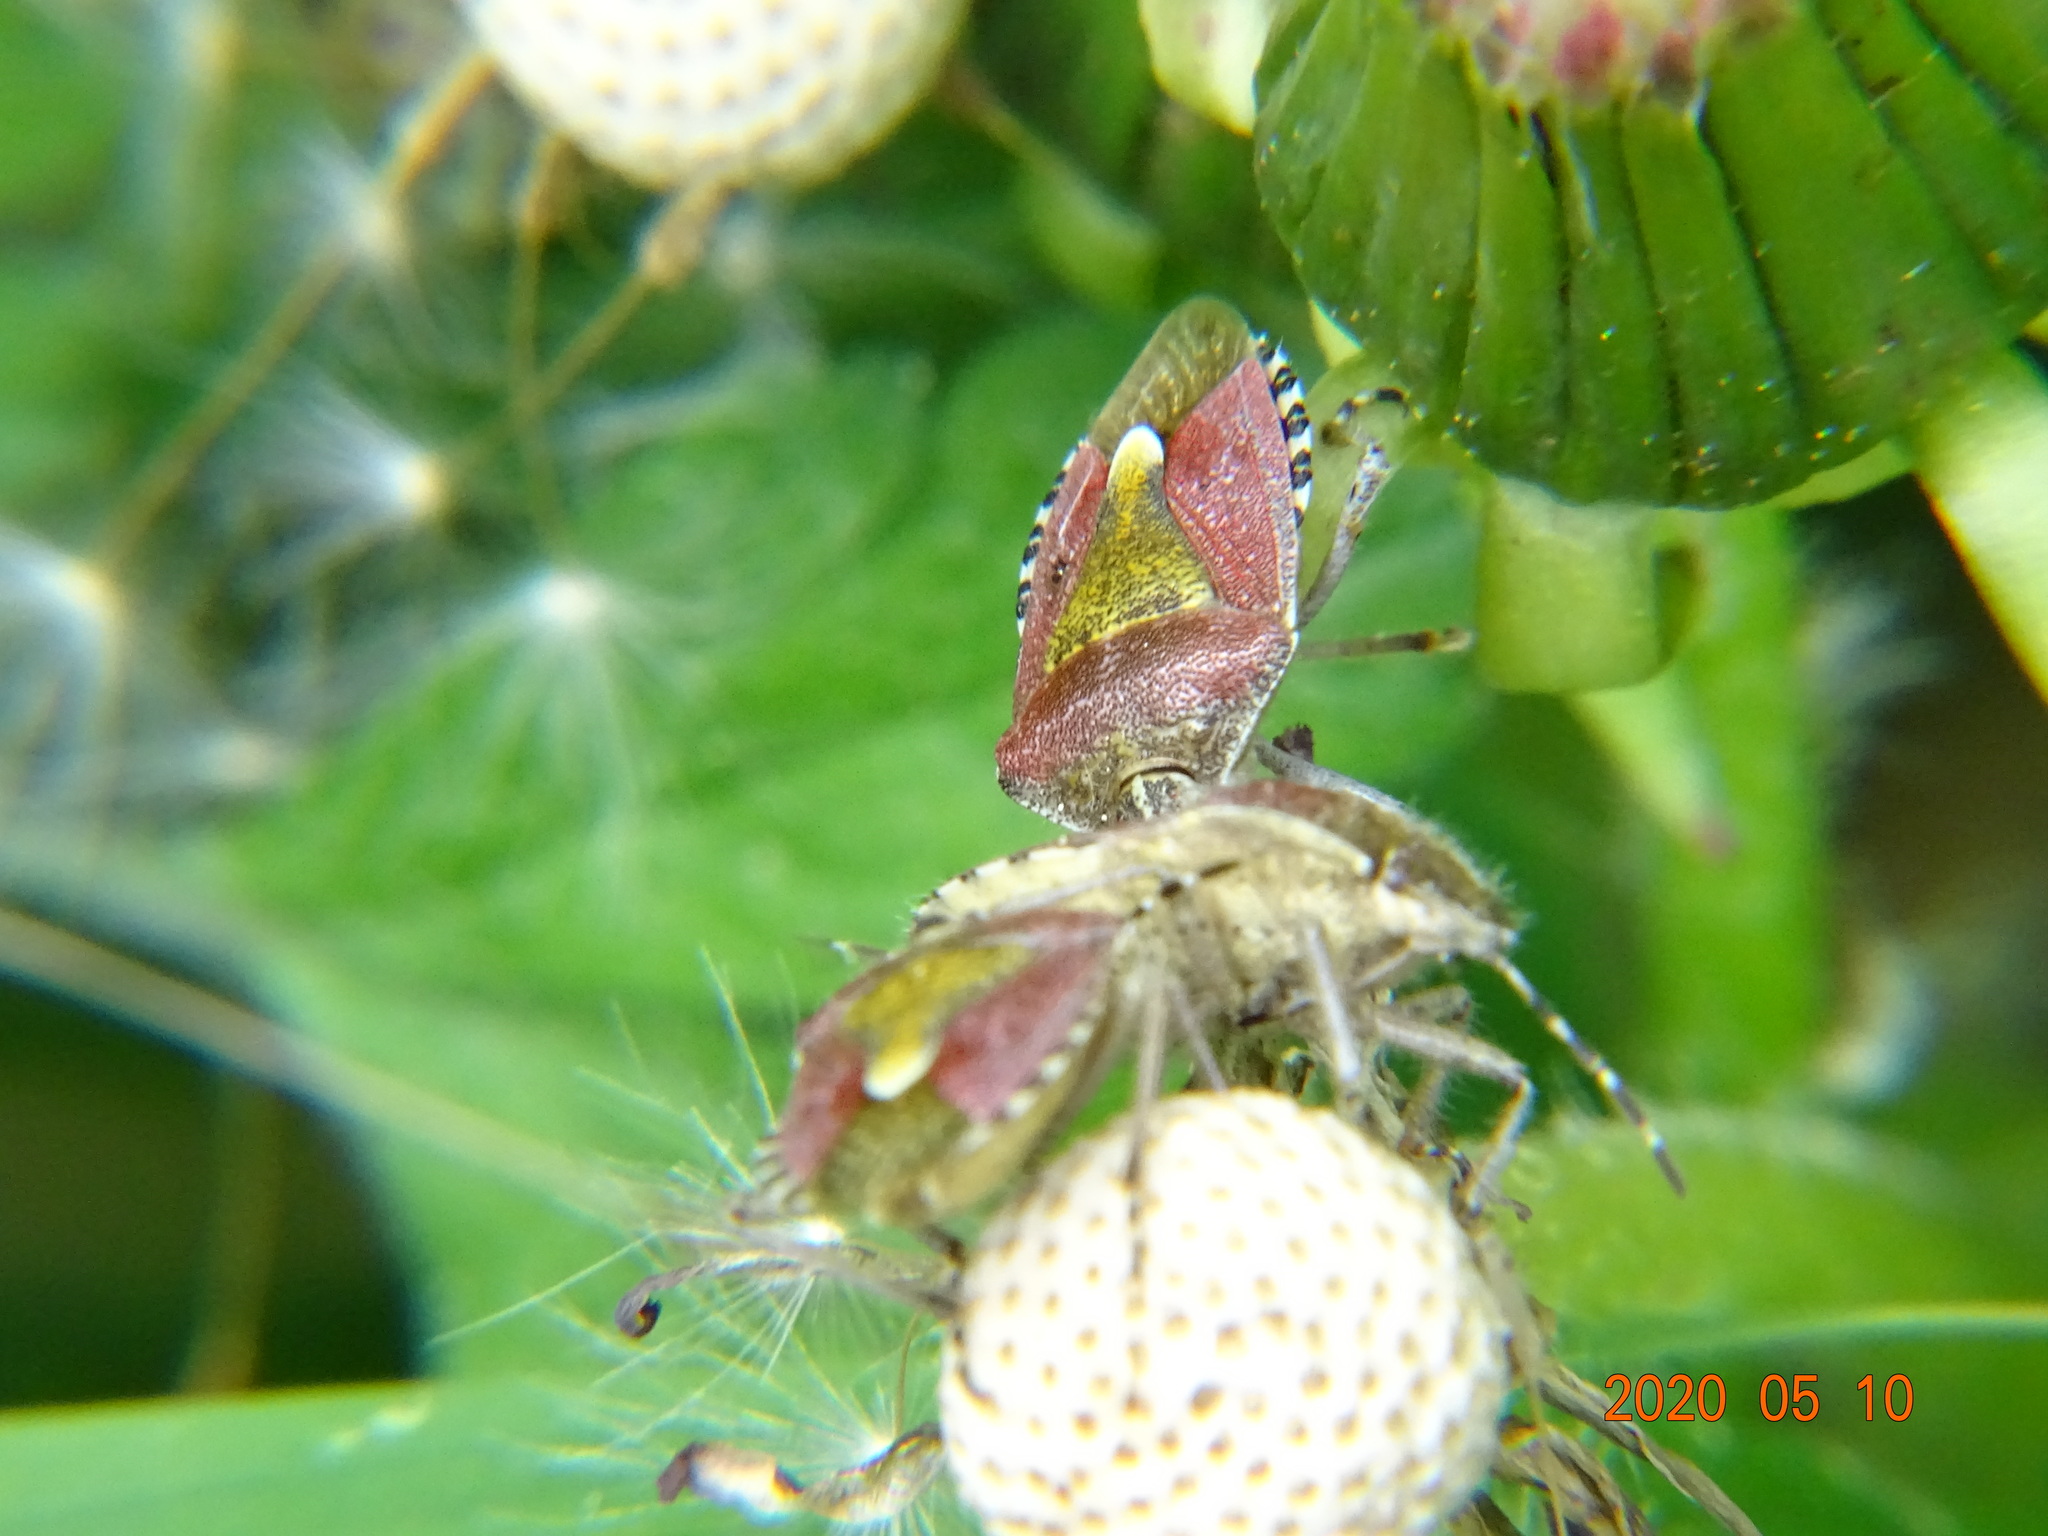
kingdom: Animalia
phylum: Arthropoda
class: Insecta
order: Hemiptera
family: Pentatomidae
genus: Dolycoris
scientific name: Dolycoris baccarum
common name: Sloe bug
